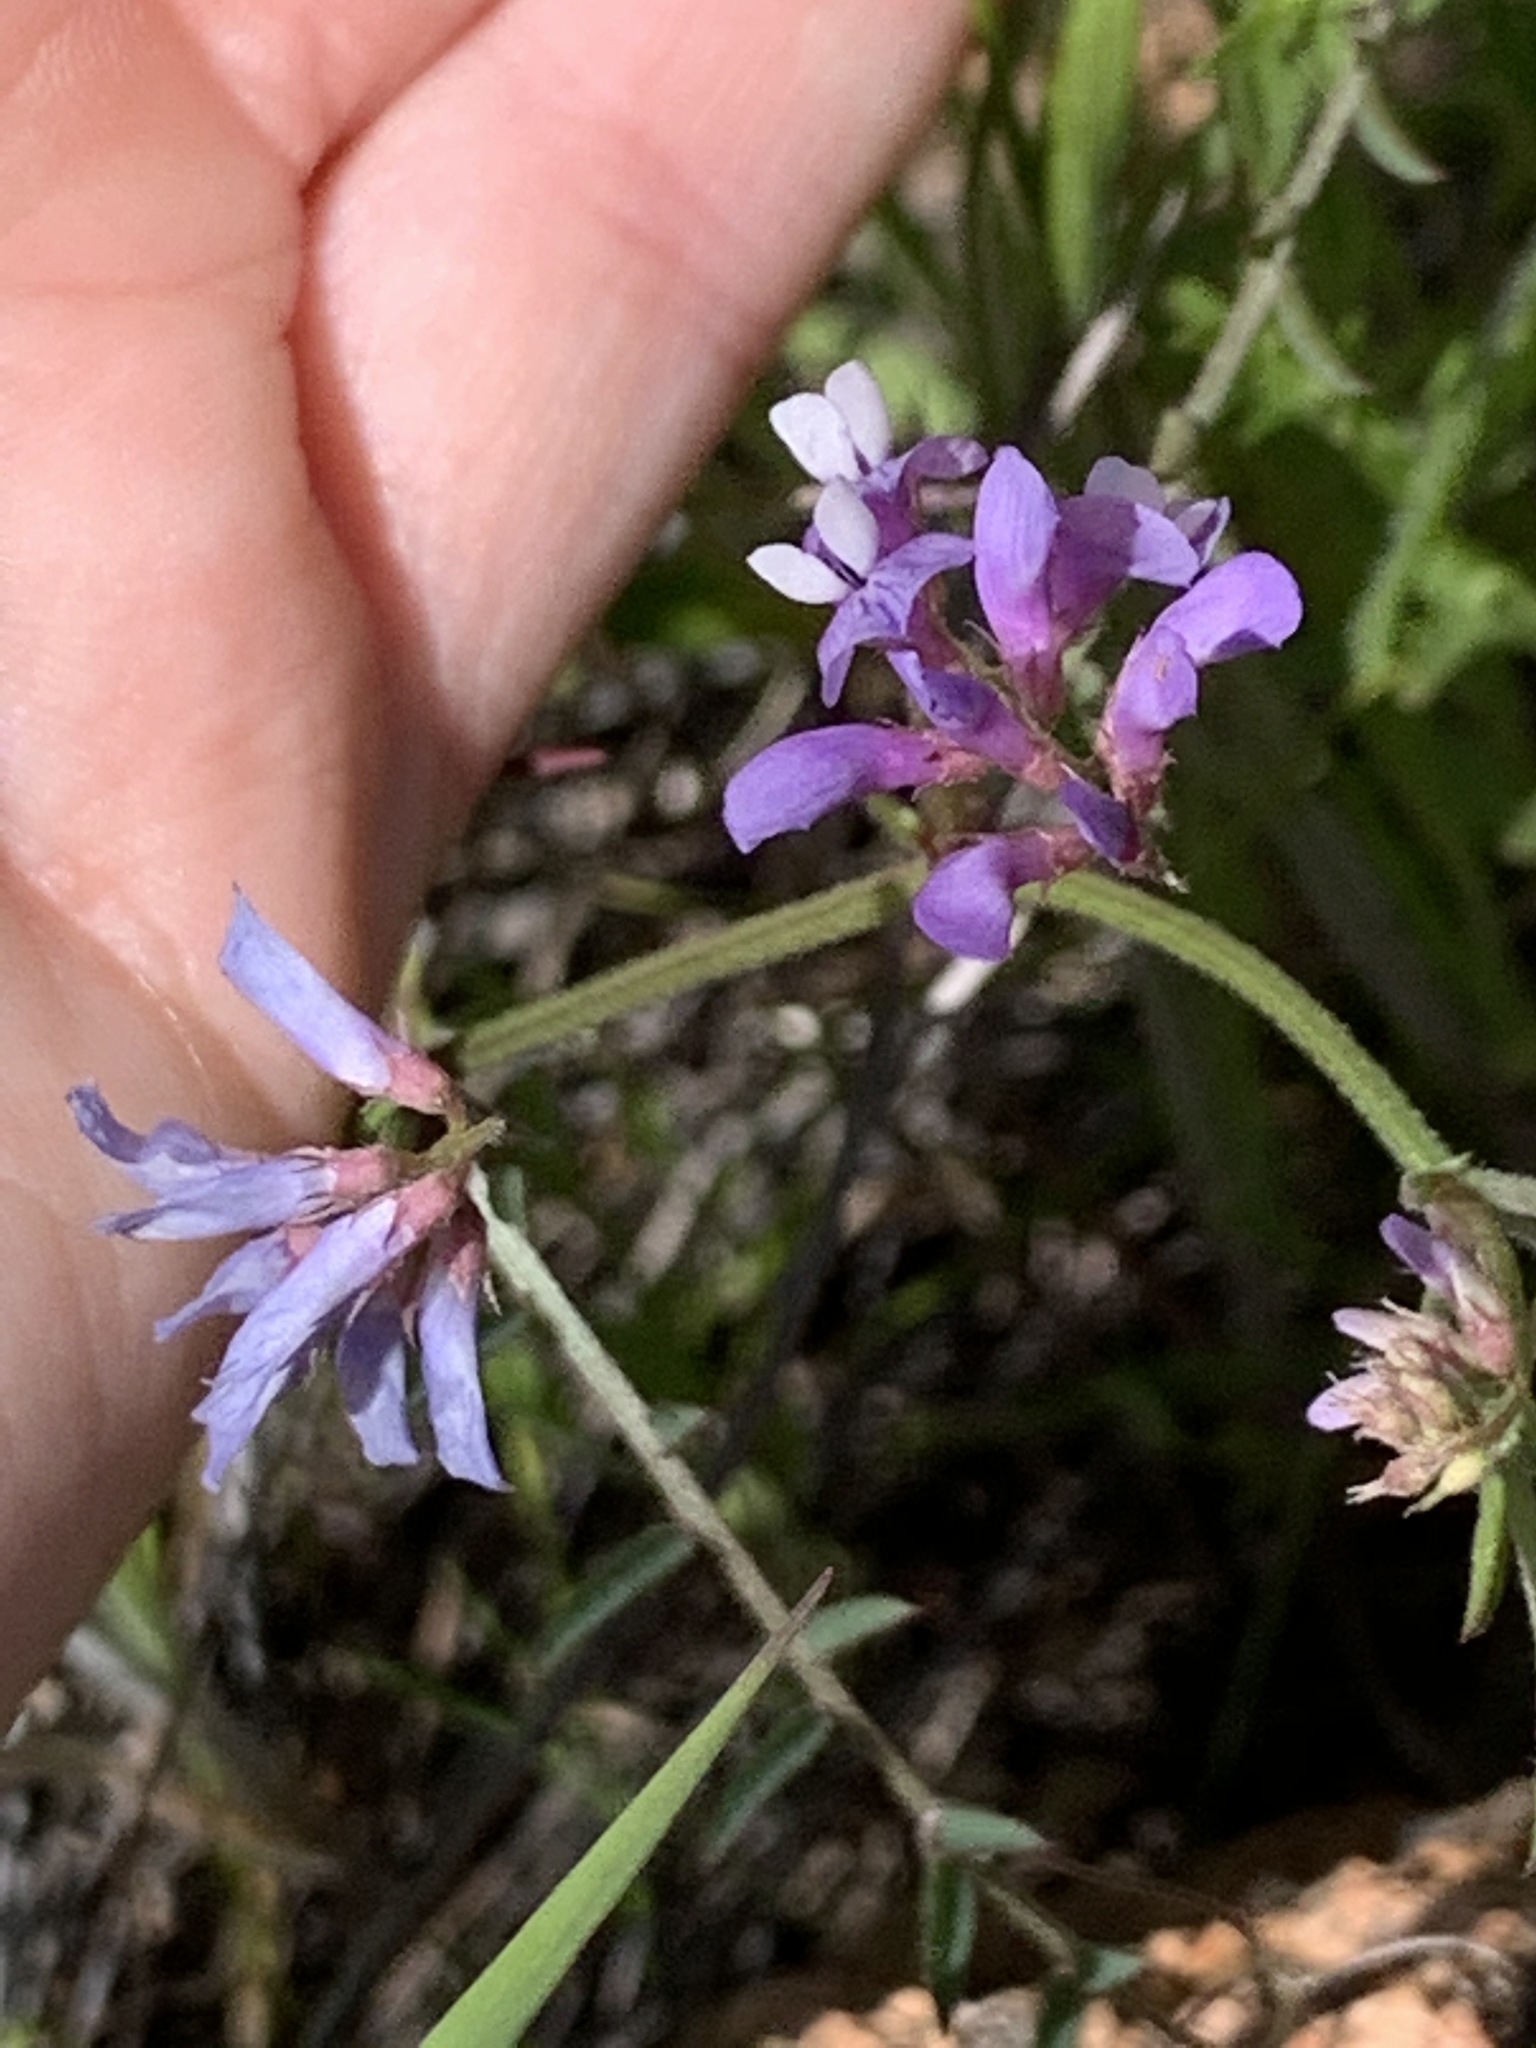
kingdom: Plantae
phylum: Tracheophyta
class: Magnoliopsida
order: Fabales
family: Fabaceae
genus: Vicia
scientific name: Vicia ludoviciana
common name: Louisiana vetch
